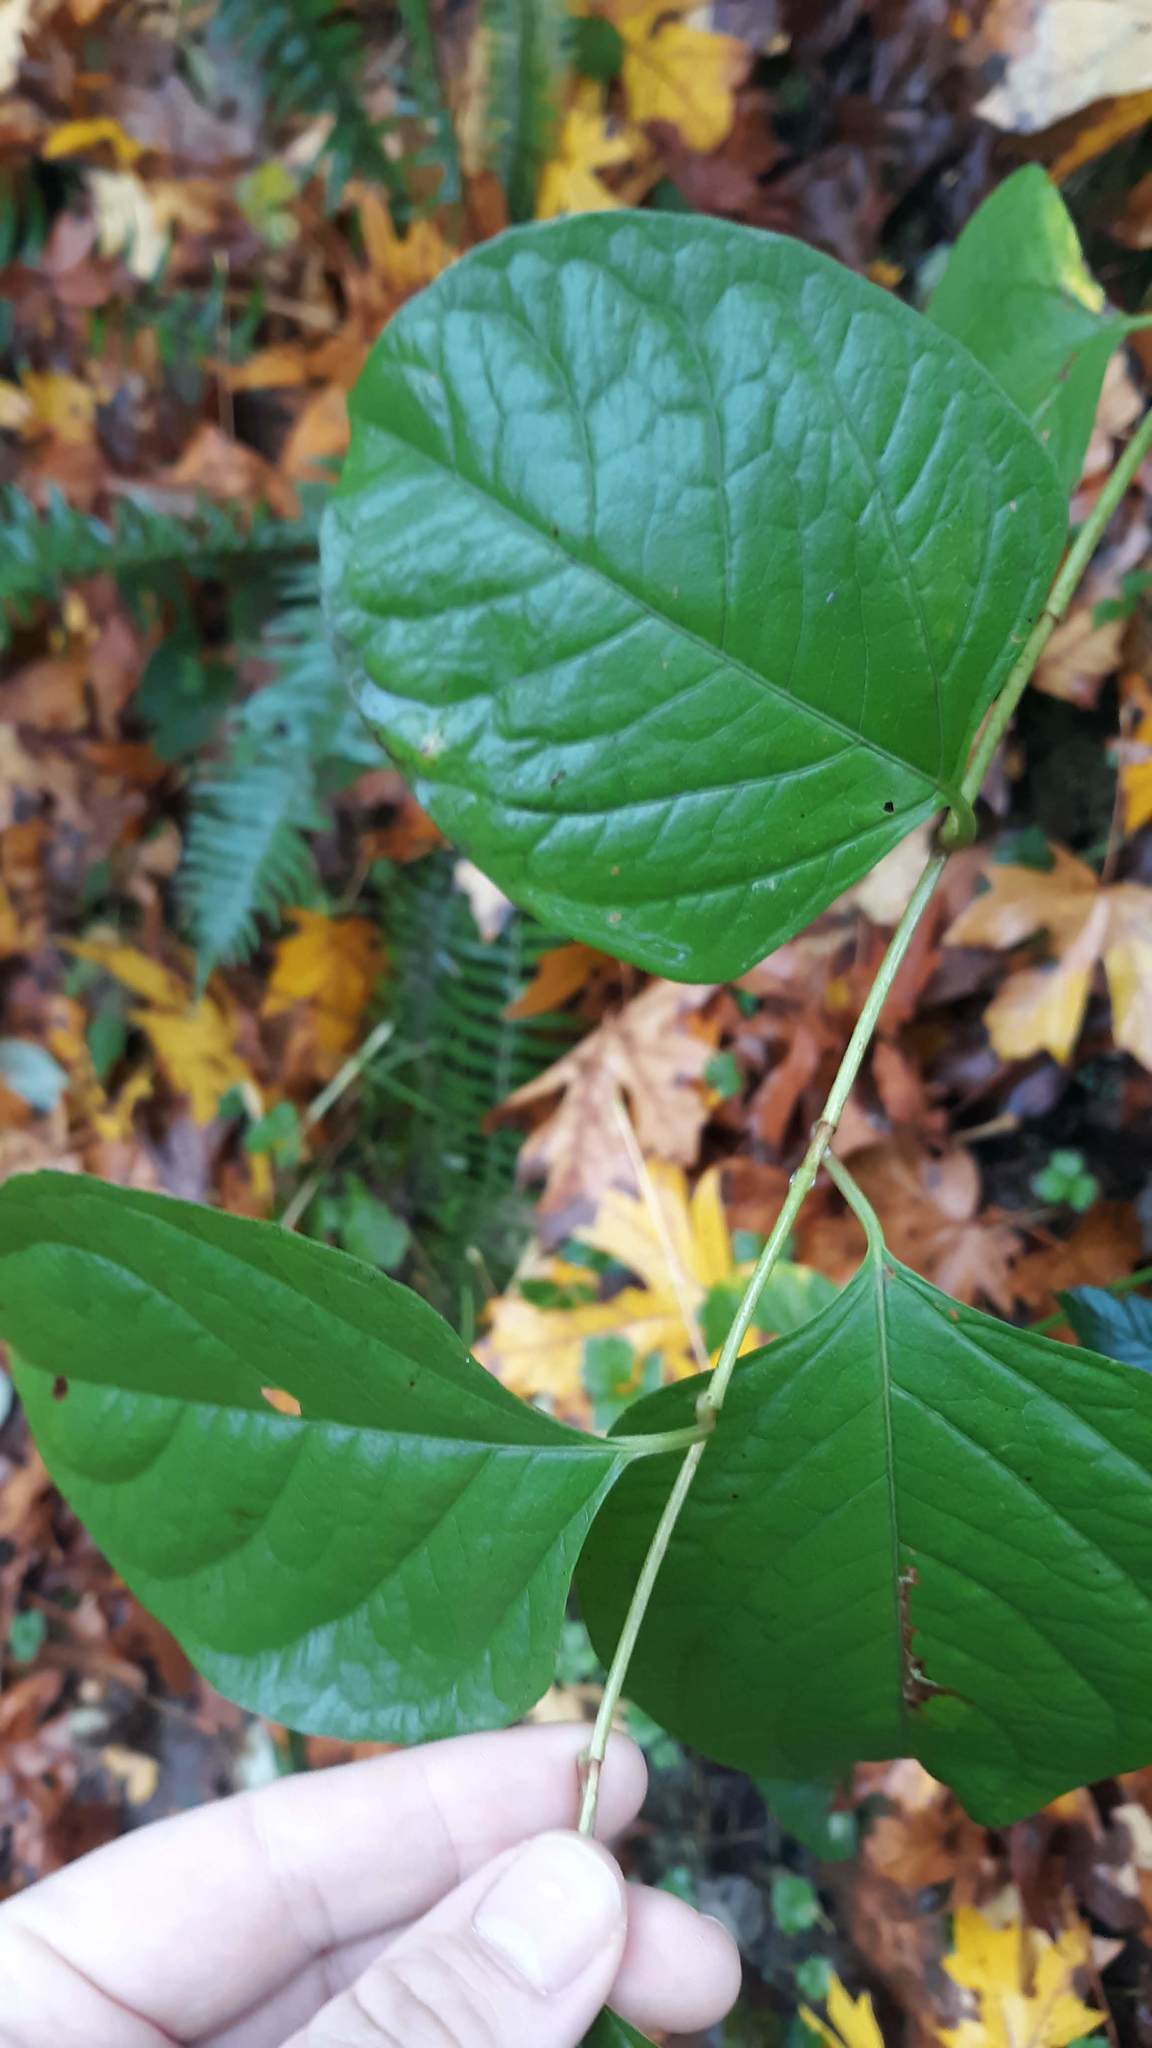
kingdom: Plantae
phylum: Tracheophyta
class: Magnoliopsida
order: Caryophyllales
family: Polygonaceae
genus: Reynoutria
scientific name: Reynoutria japonica
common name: Japanese knotweed
